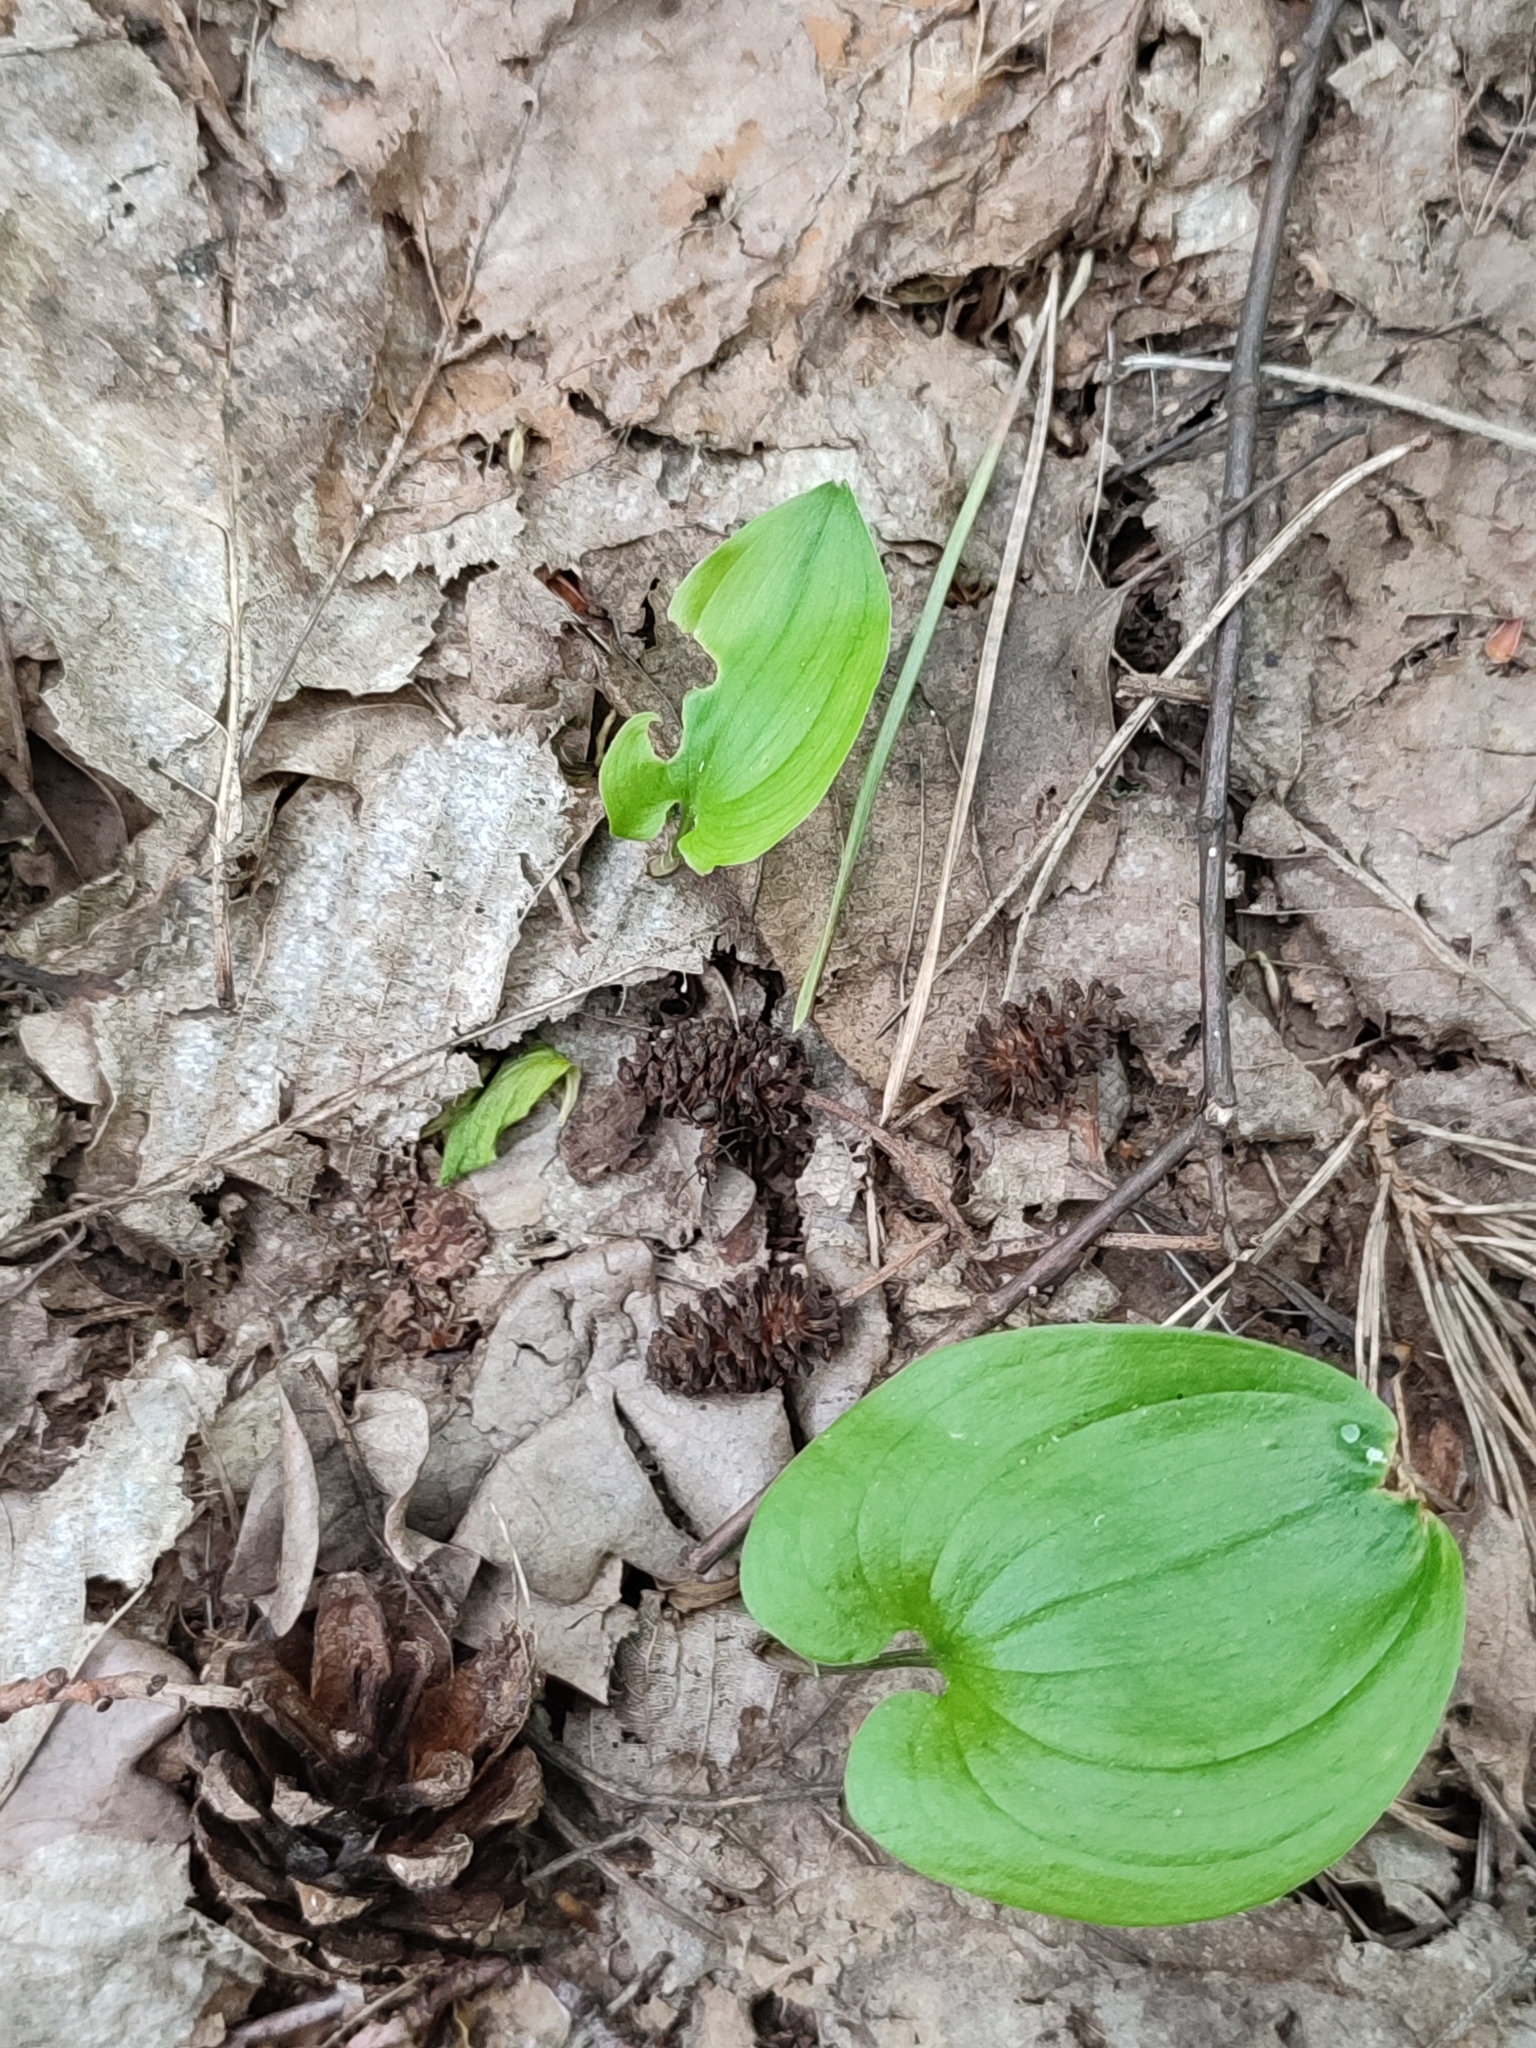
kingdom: Plantae
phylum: Tracheophyta
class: Magnoliopsida
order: Fagales
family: Betulaceae
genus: Alnus
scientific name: Alnus glutinosa
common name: Black alder
